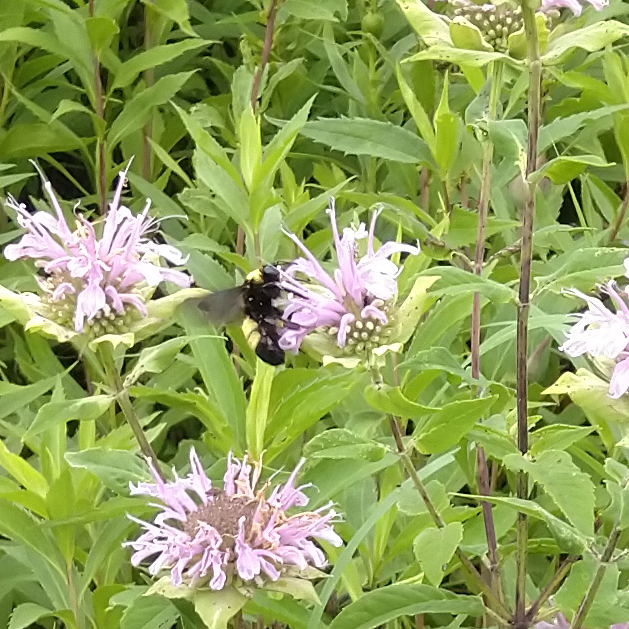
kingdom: Animalia
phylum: Arthropoda
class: Insecta
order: Hymenoptera
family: Apidae
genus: Bombus
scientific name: Bombus auricomus
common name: Black and gold bumble bee
